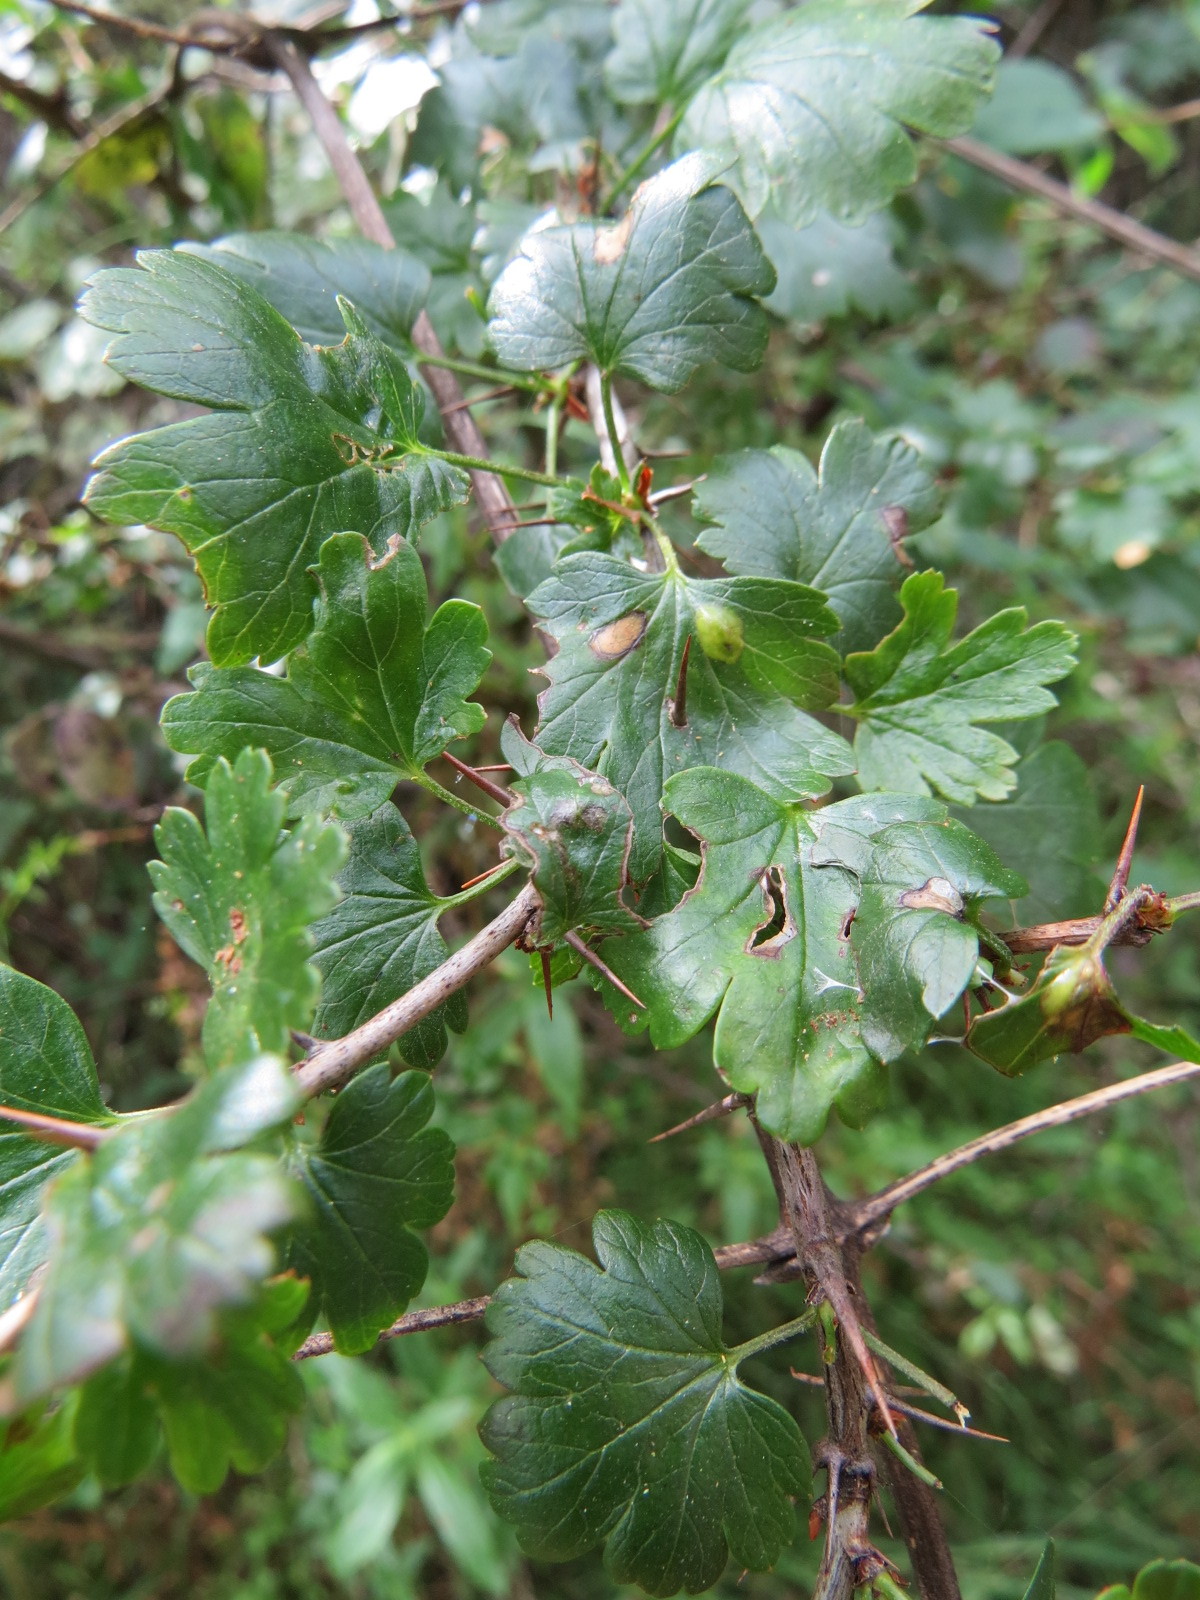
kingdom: Animalia
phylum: Arthropoda
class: Insecta
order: Diptera
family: Cecidomyiidae
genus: Ribesia
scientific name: Ribesia
